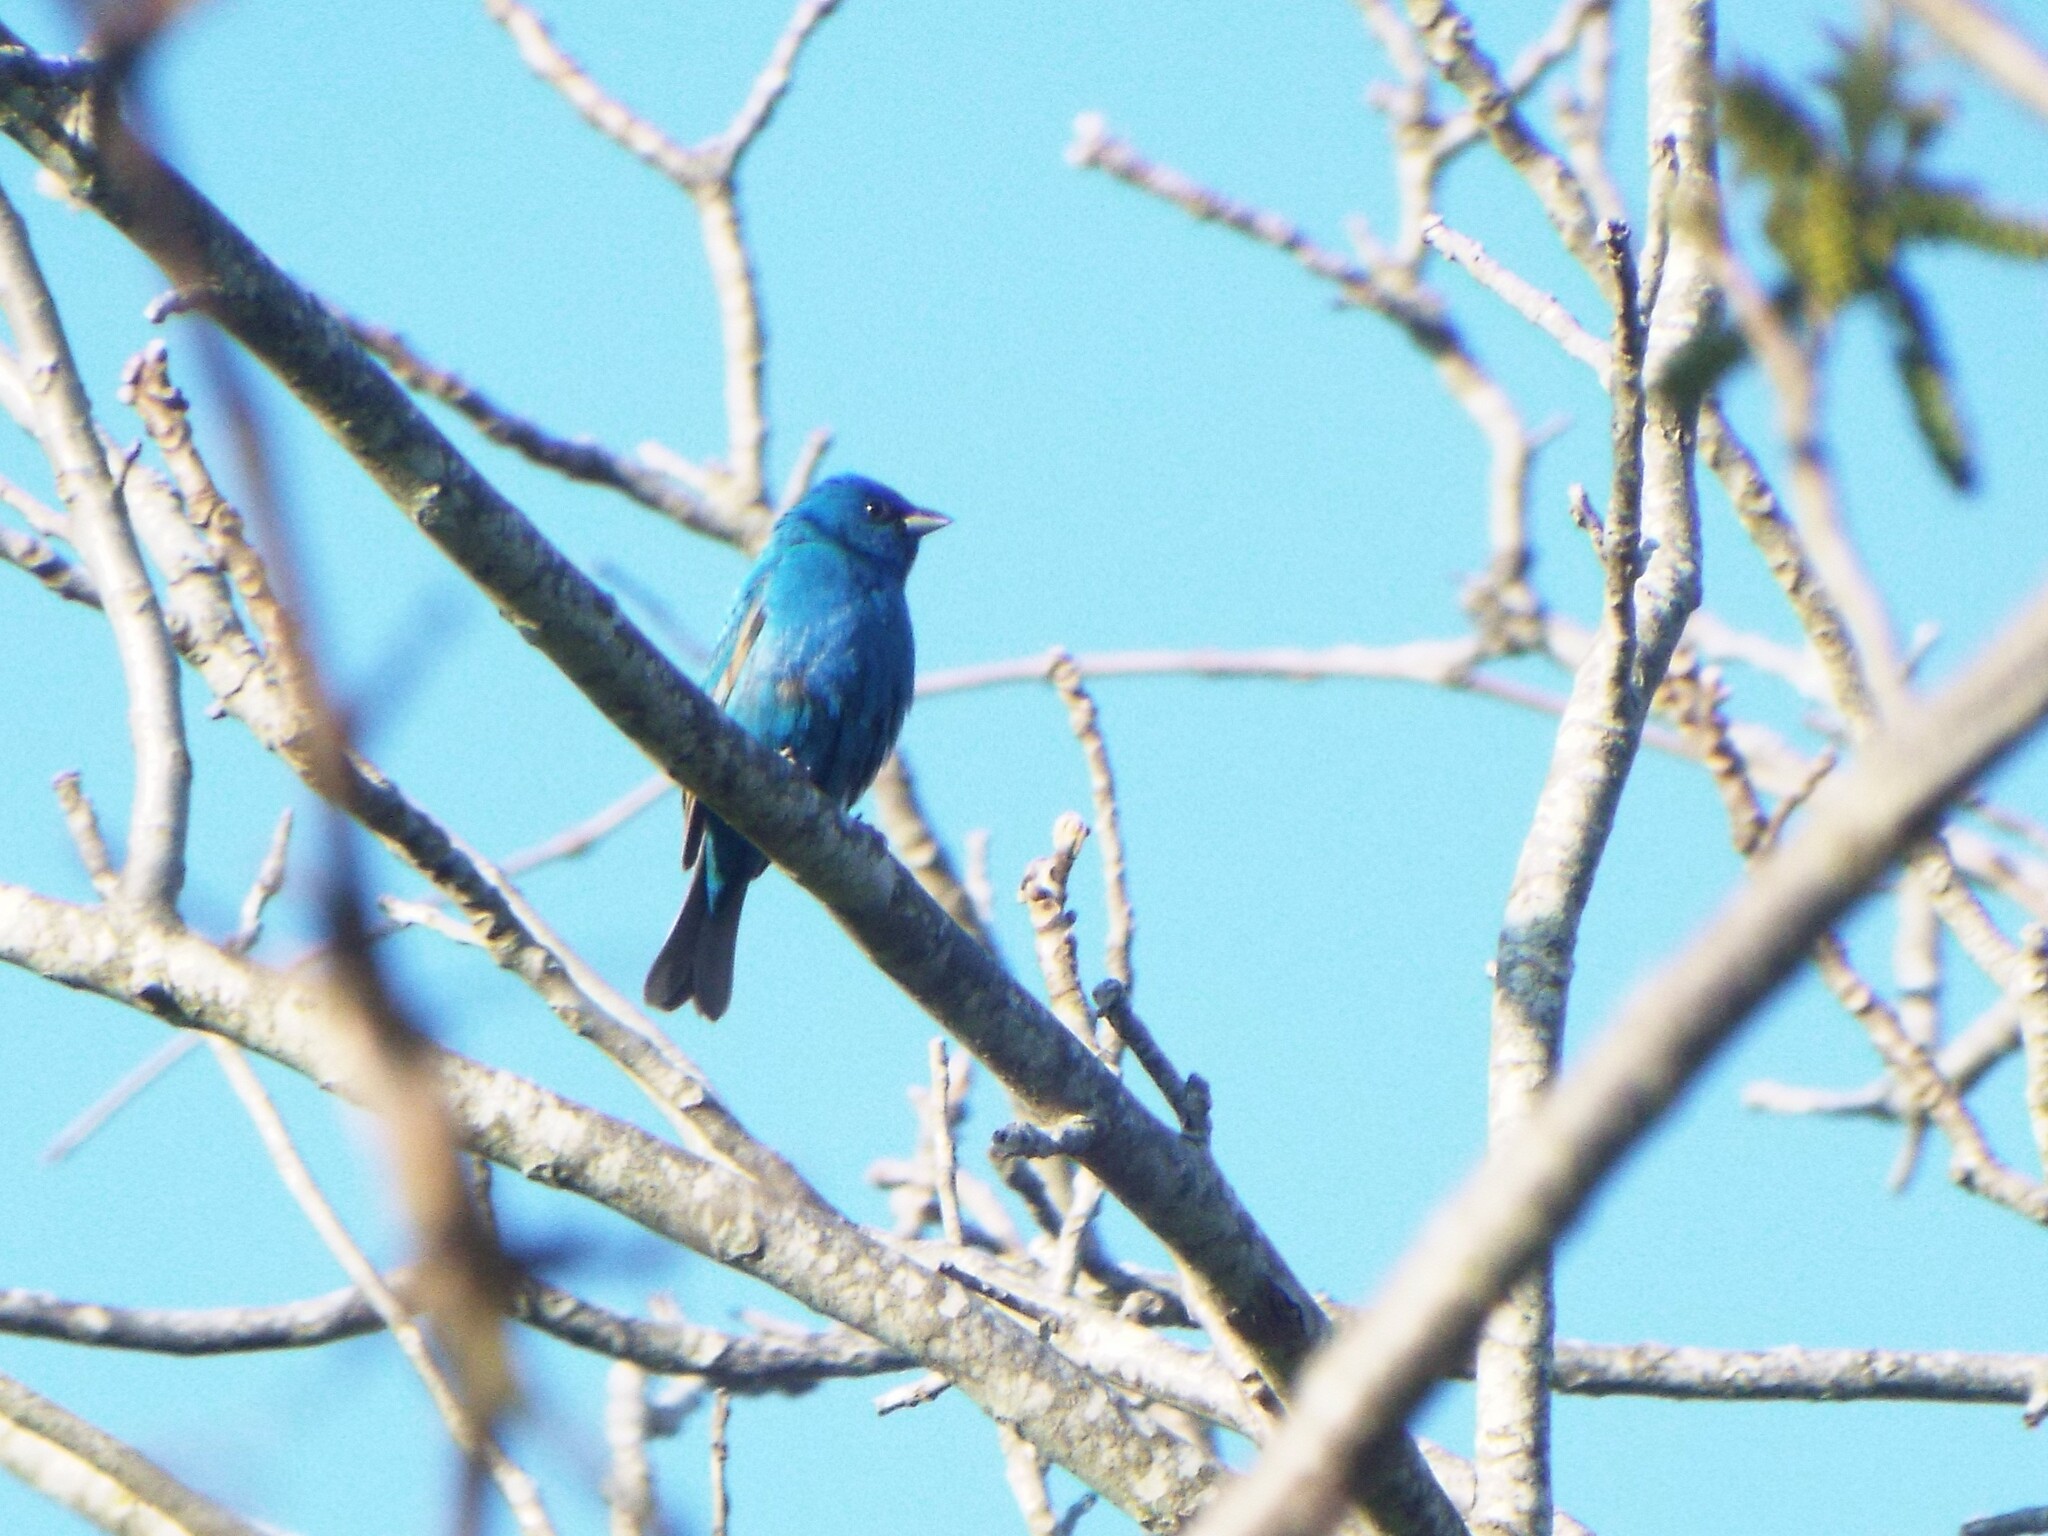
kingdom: Animalia
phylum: Chordata
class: Aves
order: Passeriformes
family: Cardinalidae
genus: Passerina
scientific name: Passerina cyanea
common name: Indigo bunting
